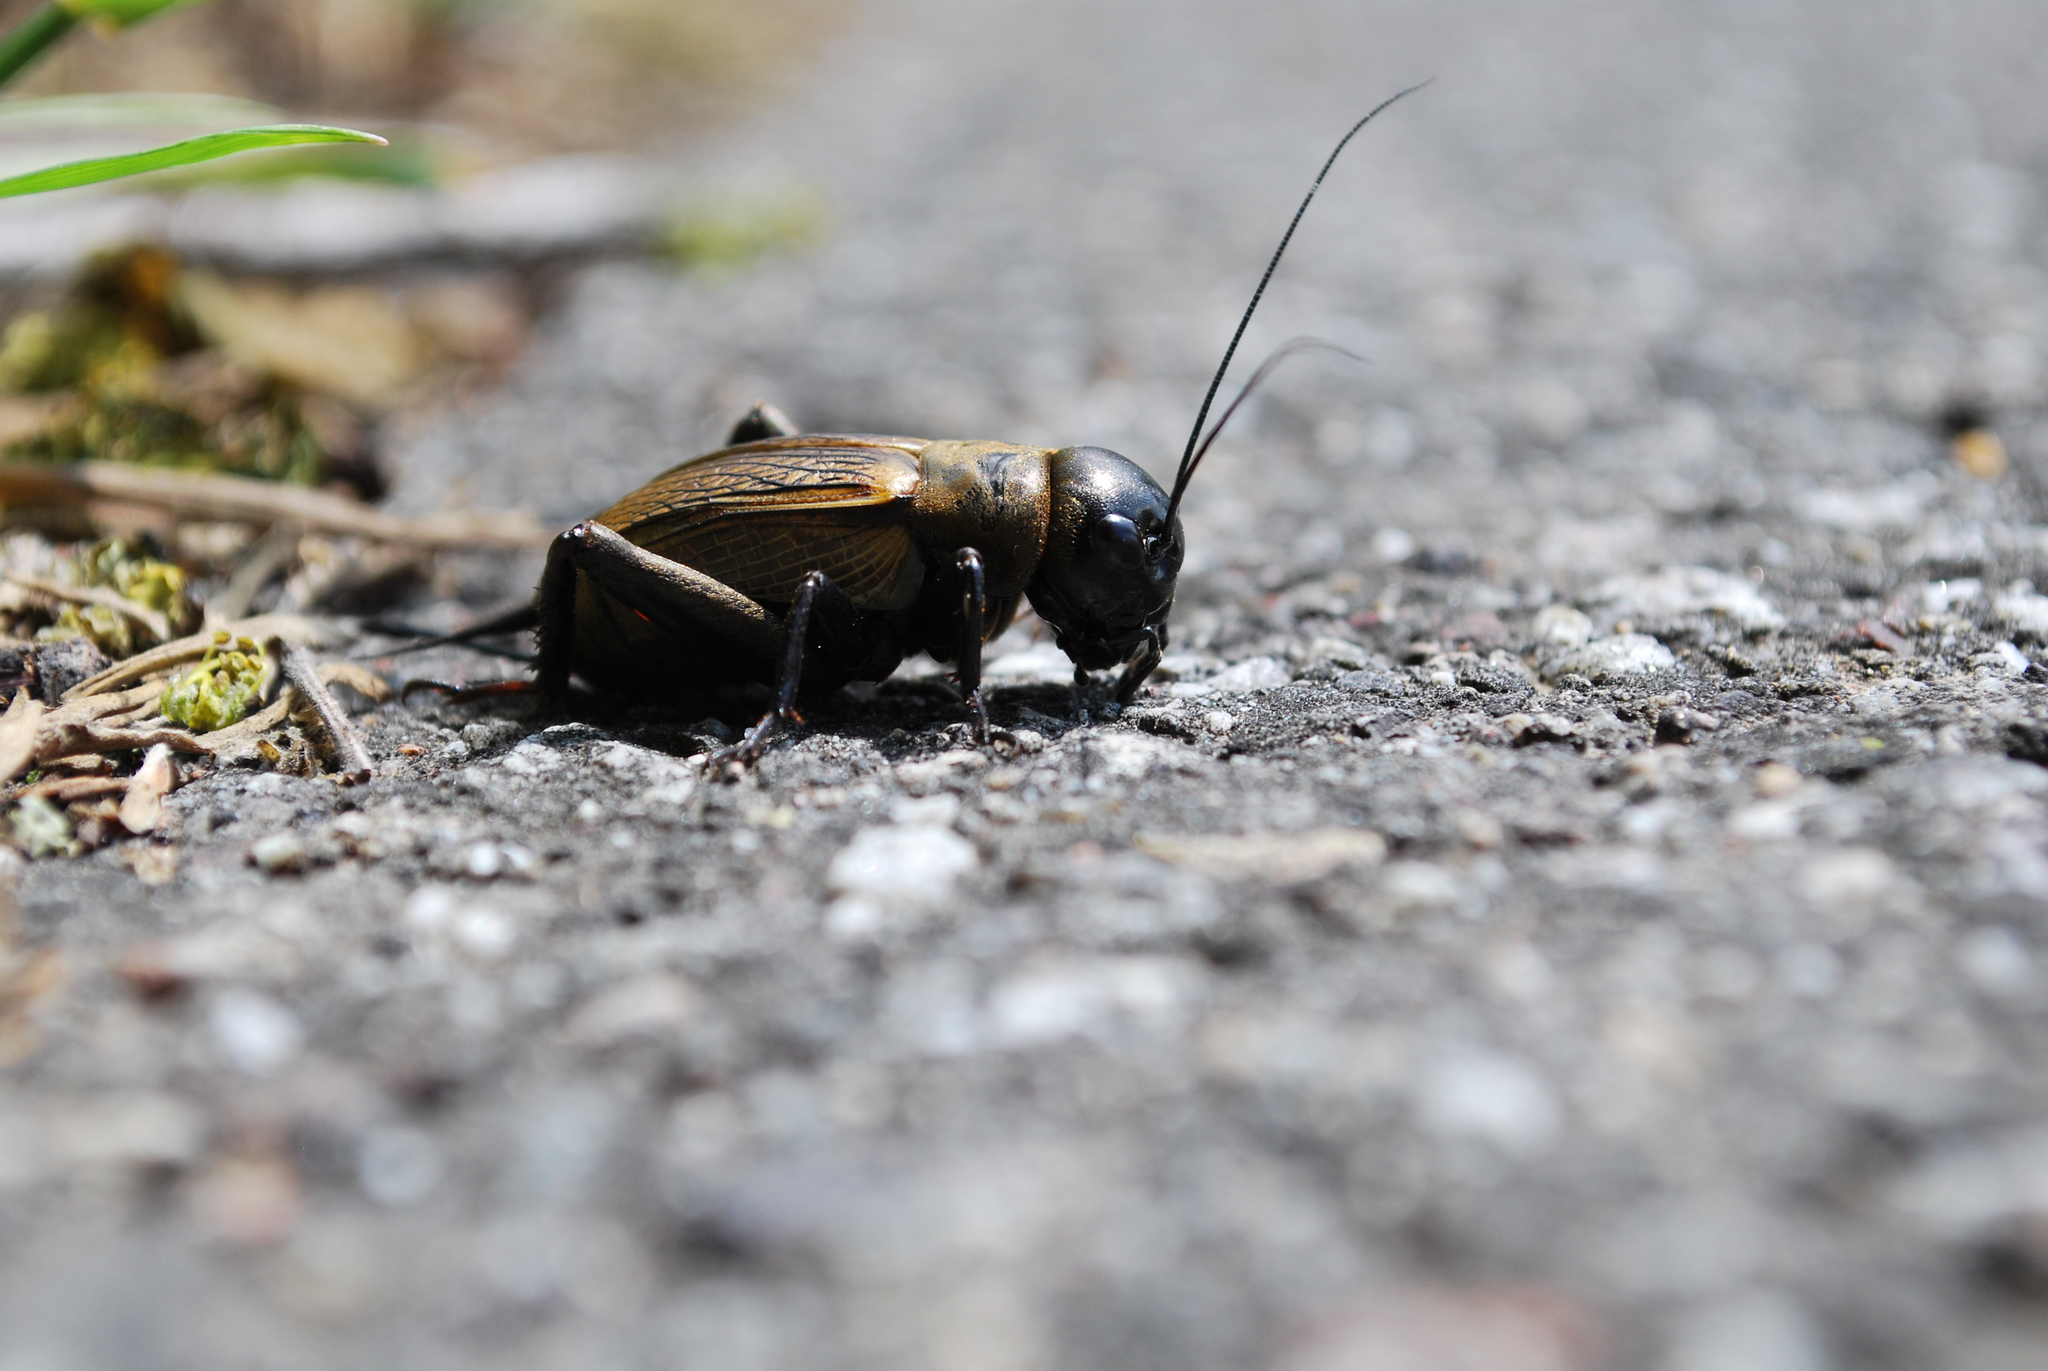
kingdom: Animalia
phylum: Arthropoda
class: Insecta
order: Orthoptera
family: Gryllidae
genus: Gryllus
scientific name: Gryllus campestris
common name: Field cricket
